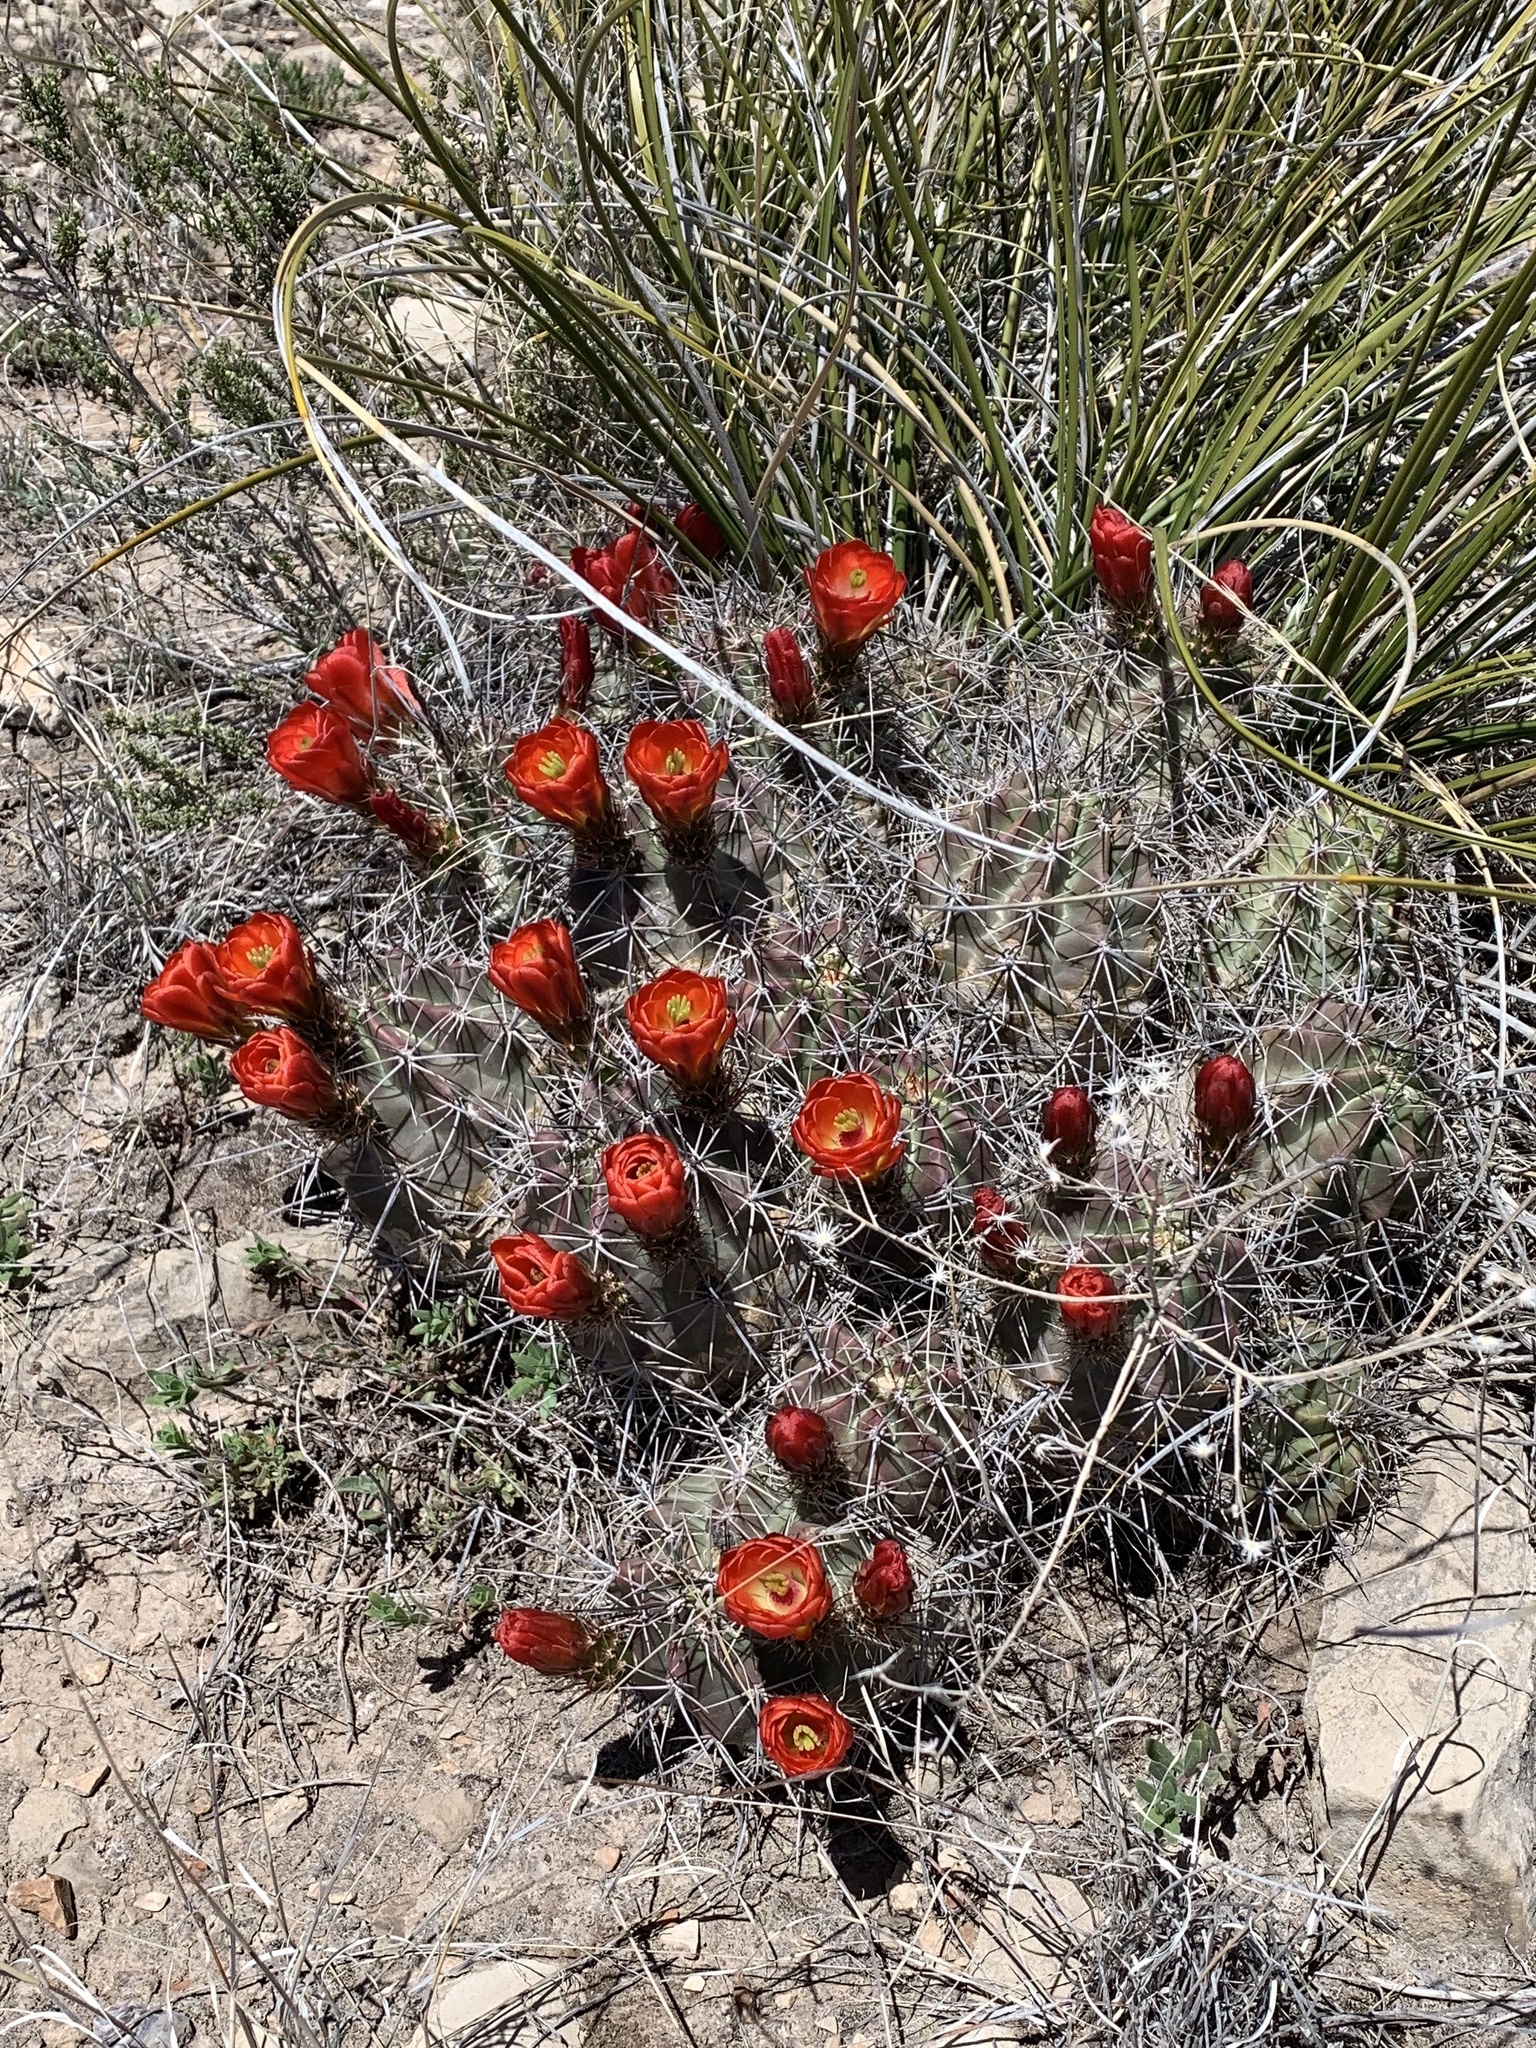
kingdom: Plantae
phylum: Tracheophyta
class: Magnoliopsida
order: Caryophyllales
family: Cactaceae
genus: Echinocereus
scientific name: Echinocereus coccineus
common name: Scarlet hedgehog cactus
